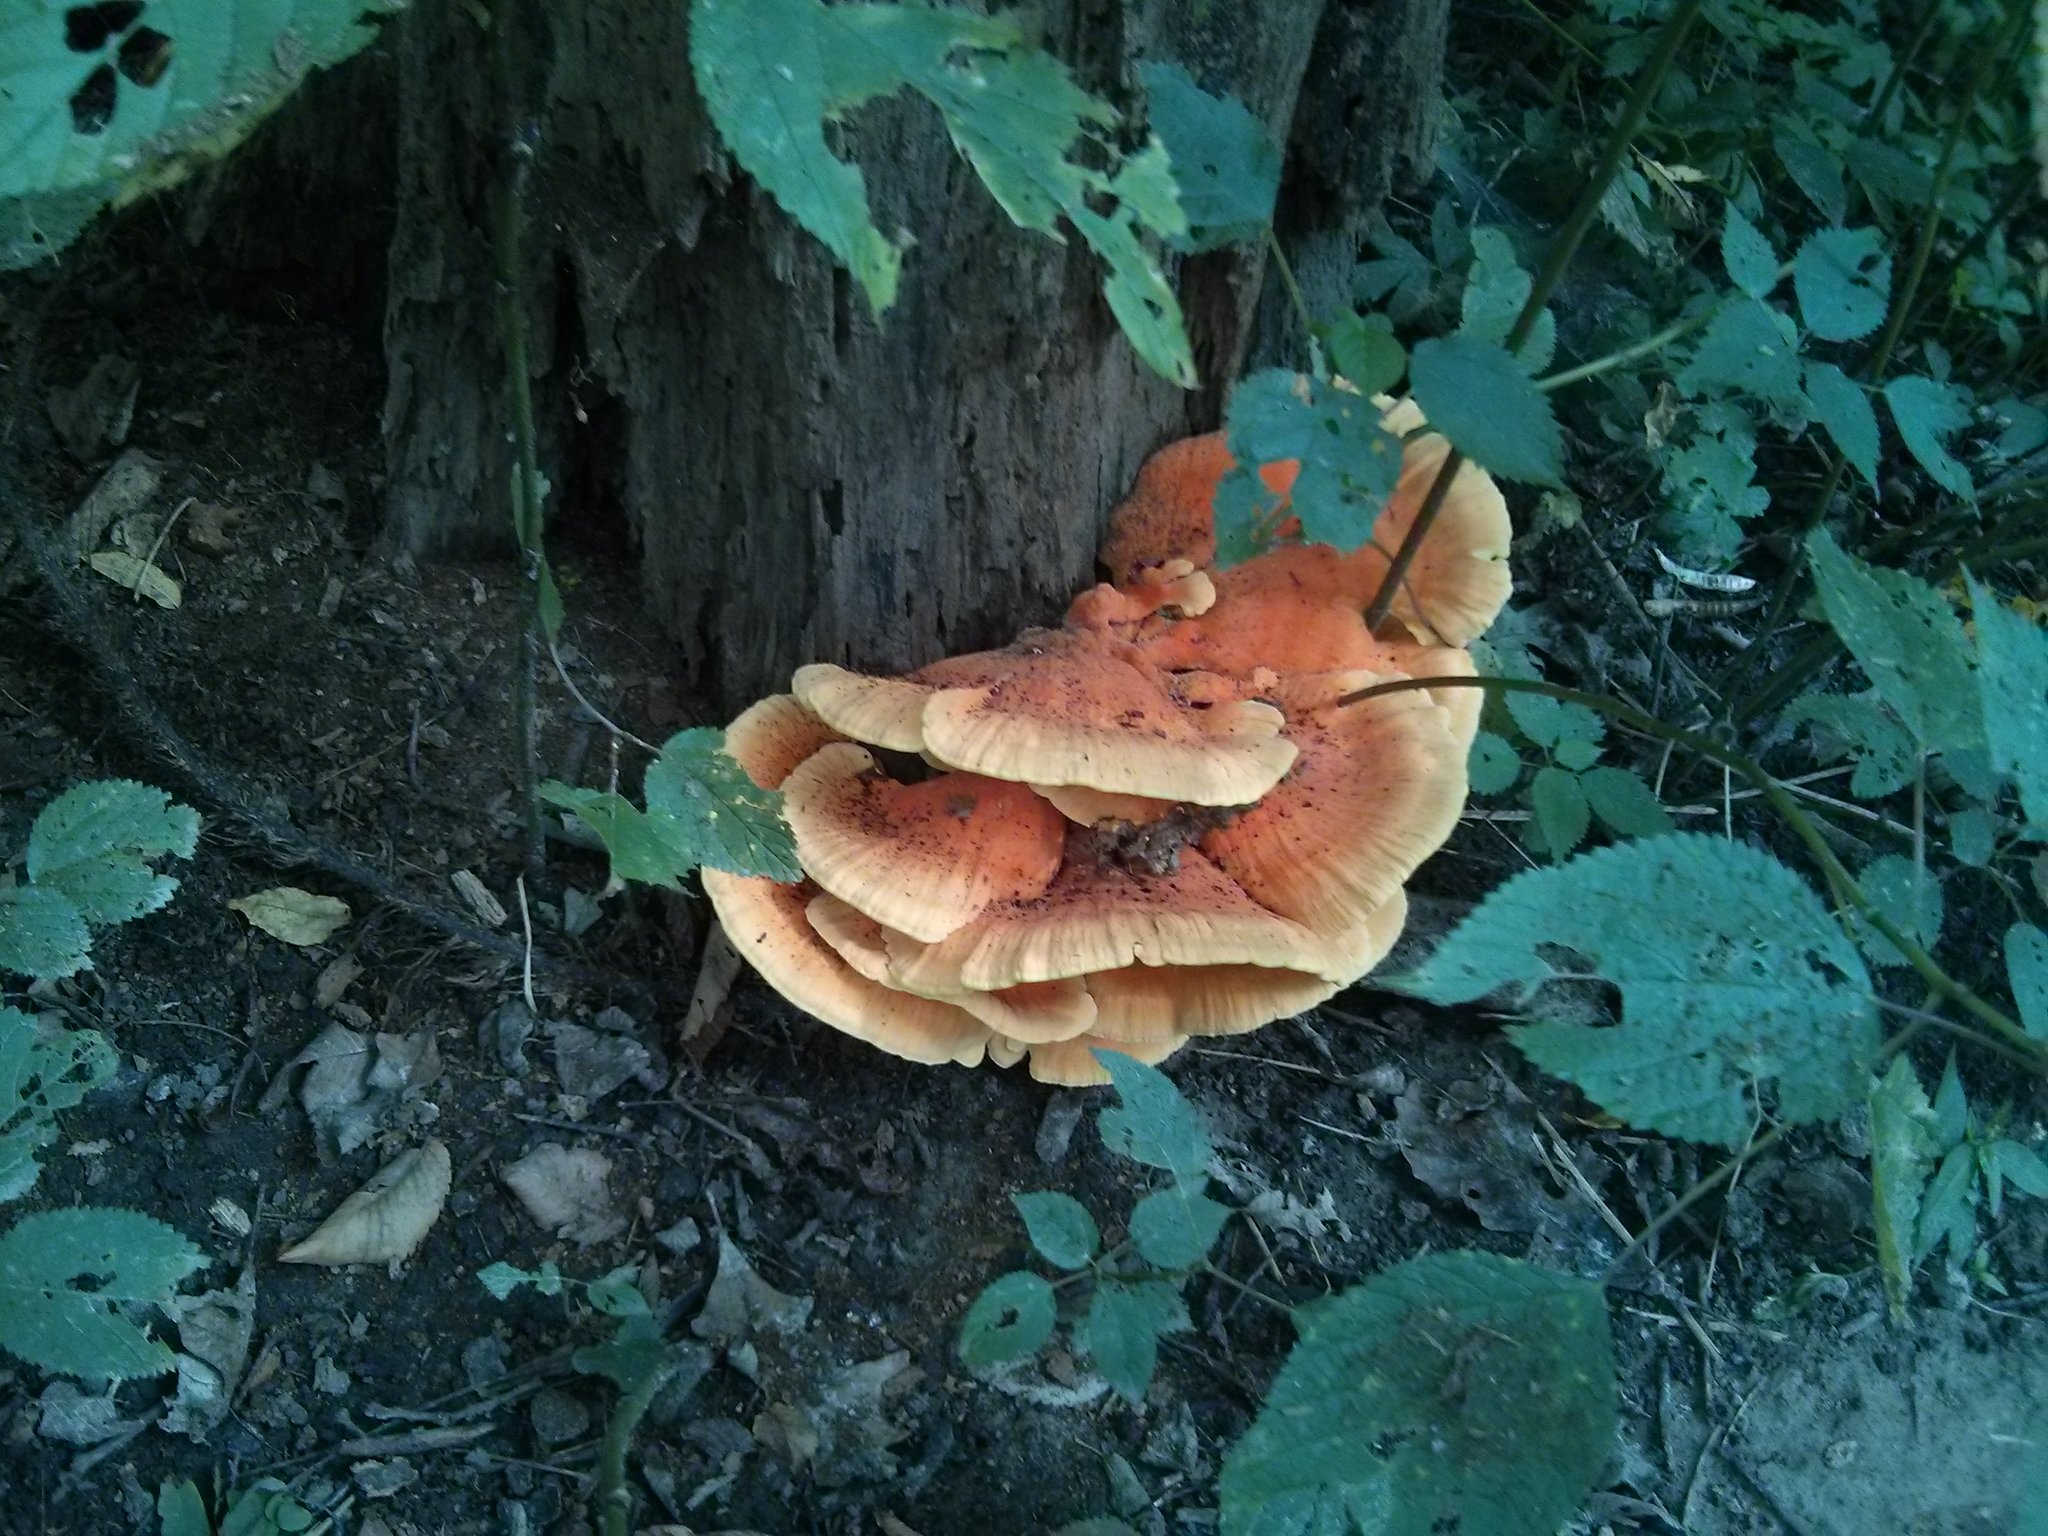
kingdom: Fungi
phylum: Basidiomycota
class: Agaricomycetes
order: Polyporales
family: Laetiporaceae
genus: Laetiporus
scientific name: Laetiporus sulphureus
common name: Chicken of the woods
